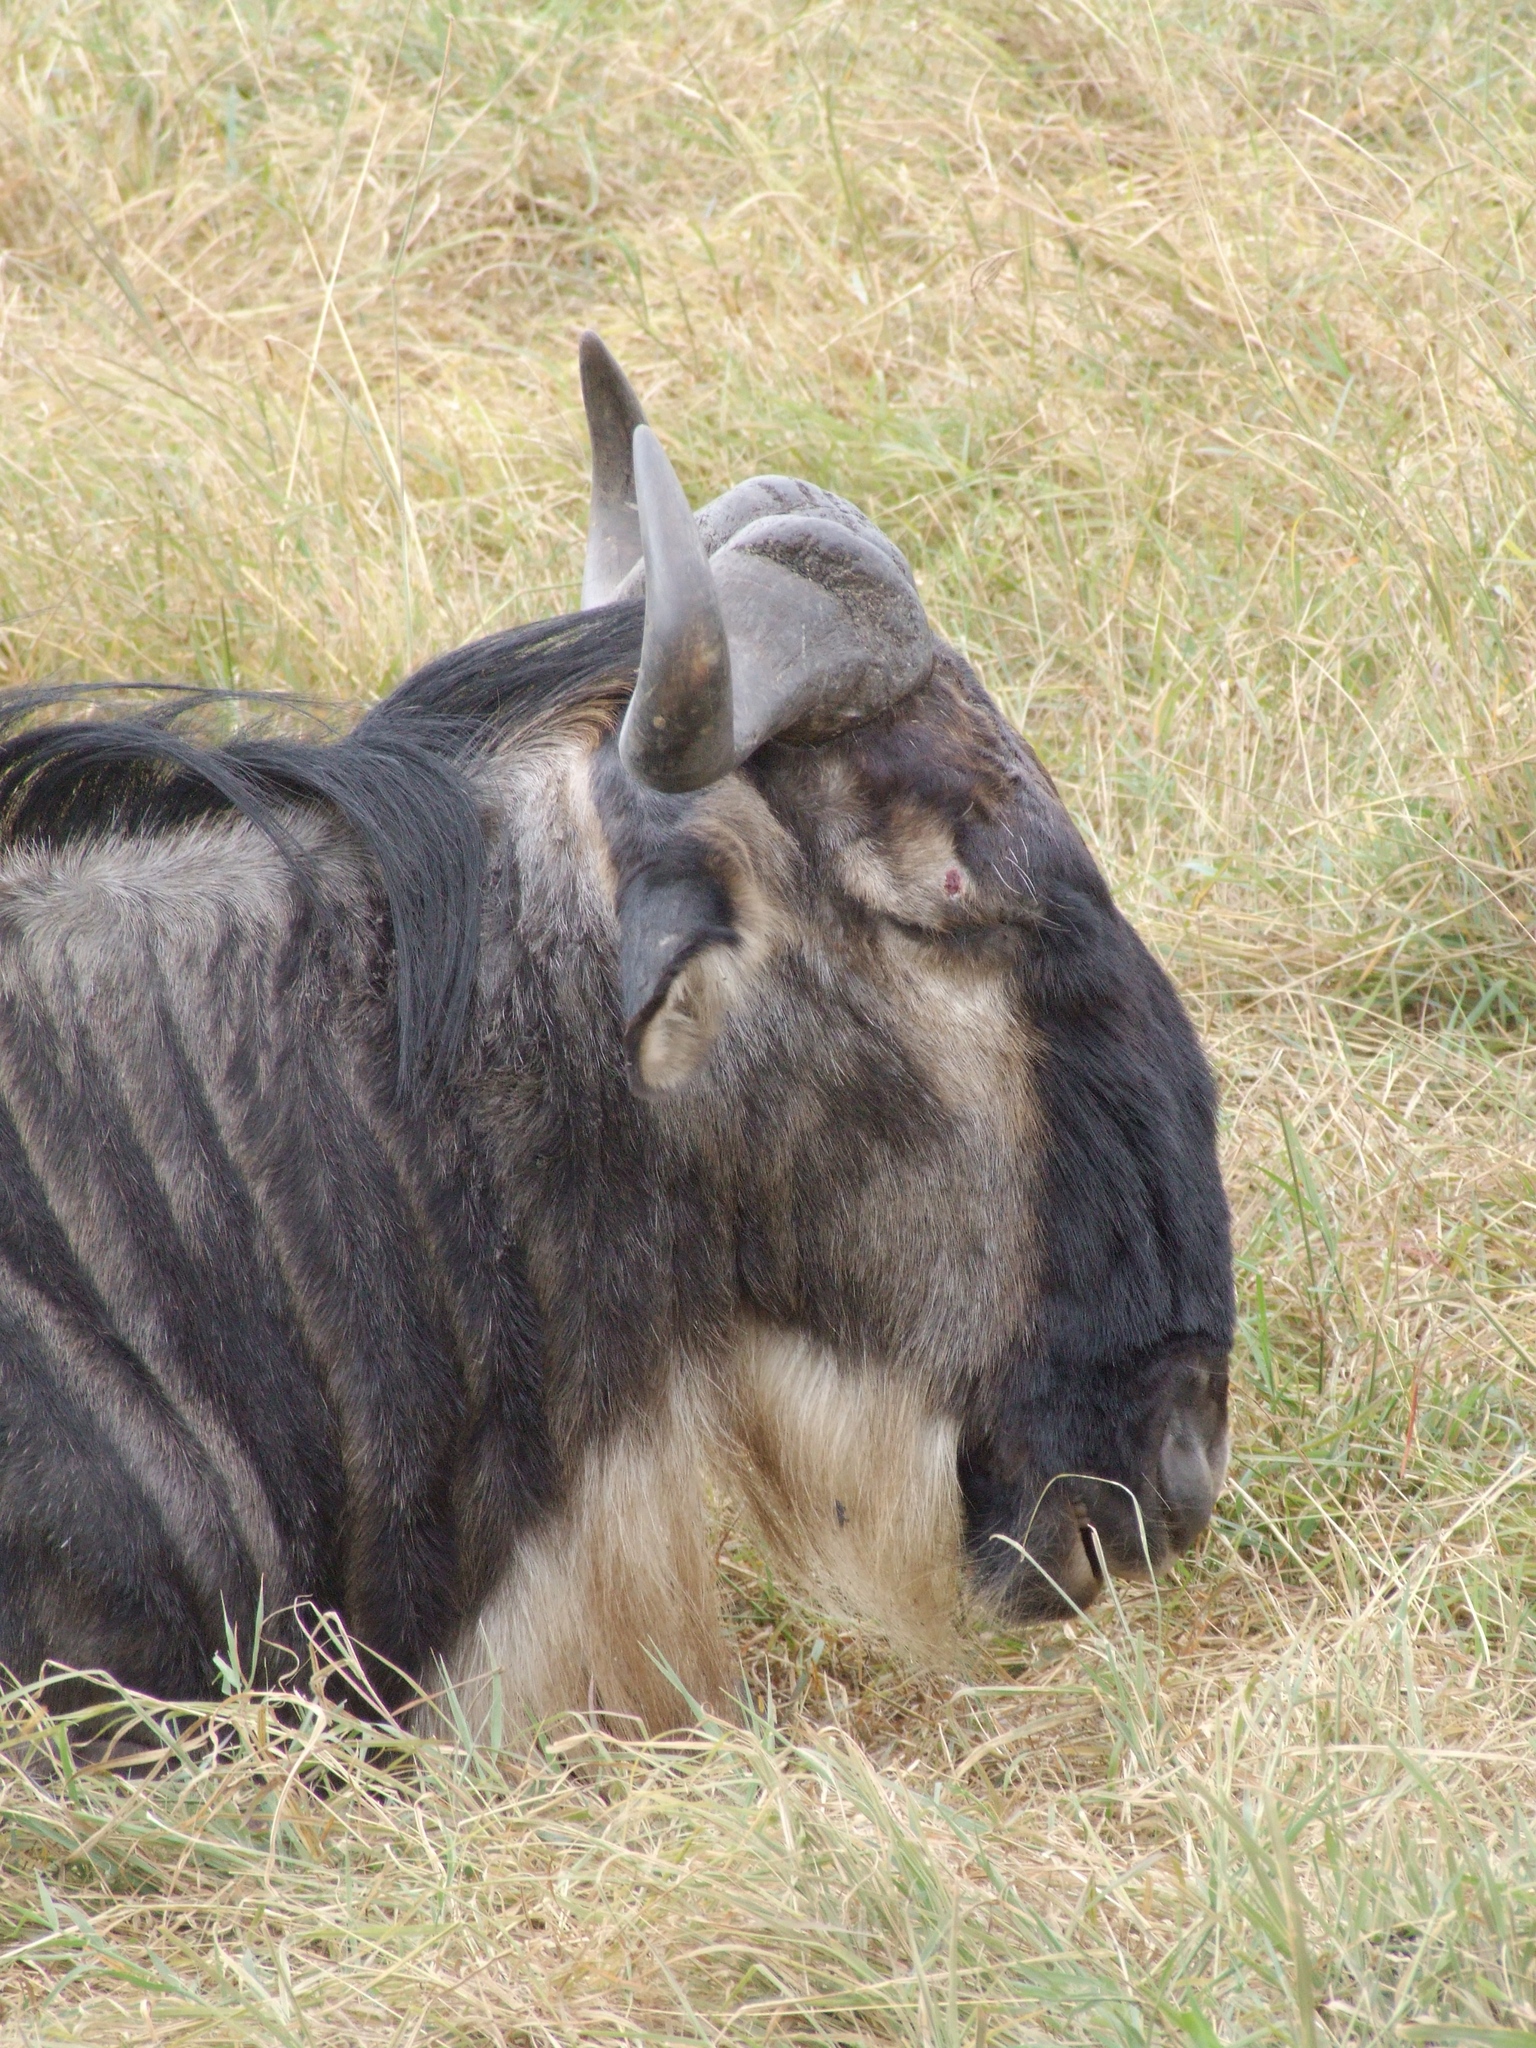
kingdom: Animalia
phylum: Chordata
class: Mammalia
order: Artiodactyla
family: Bovidae
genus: Connochaetes
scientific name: Connochaetes taurinus
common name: Blue wildebeest
